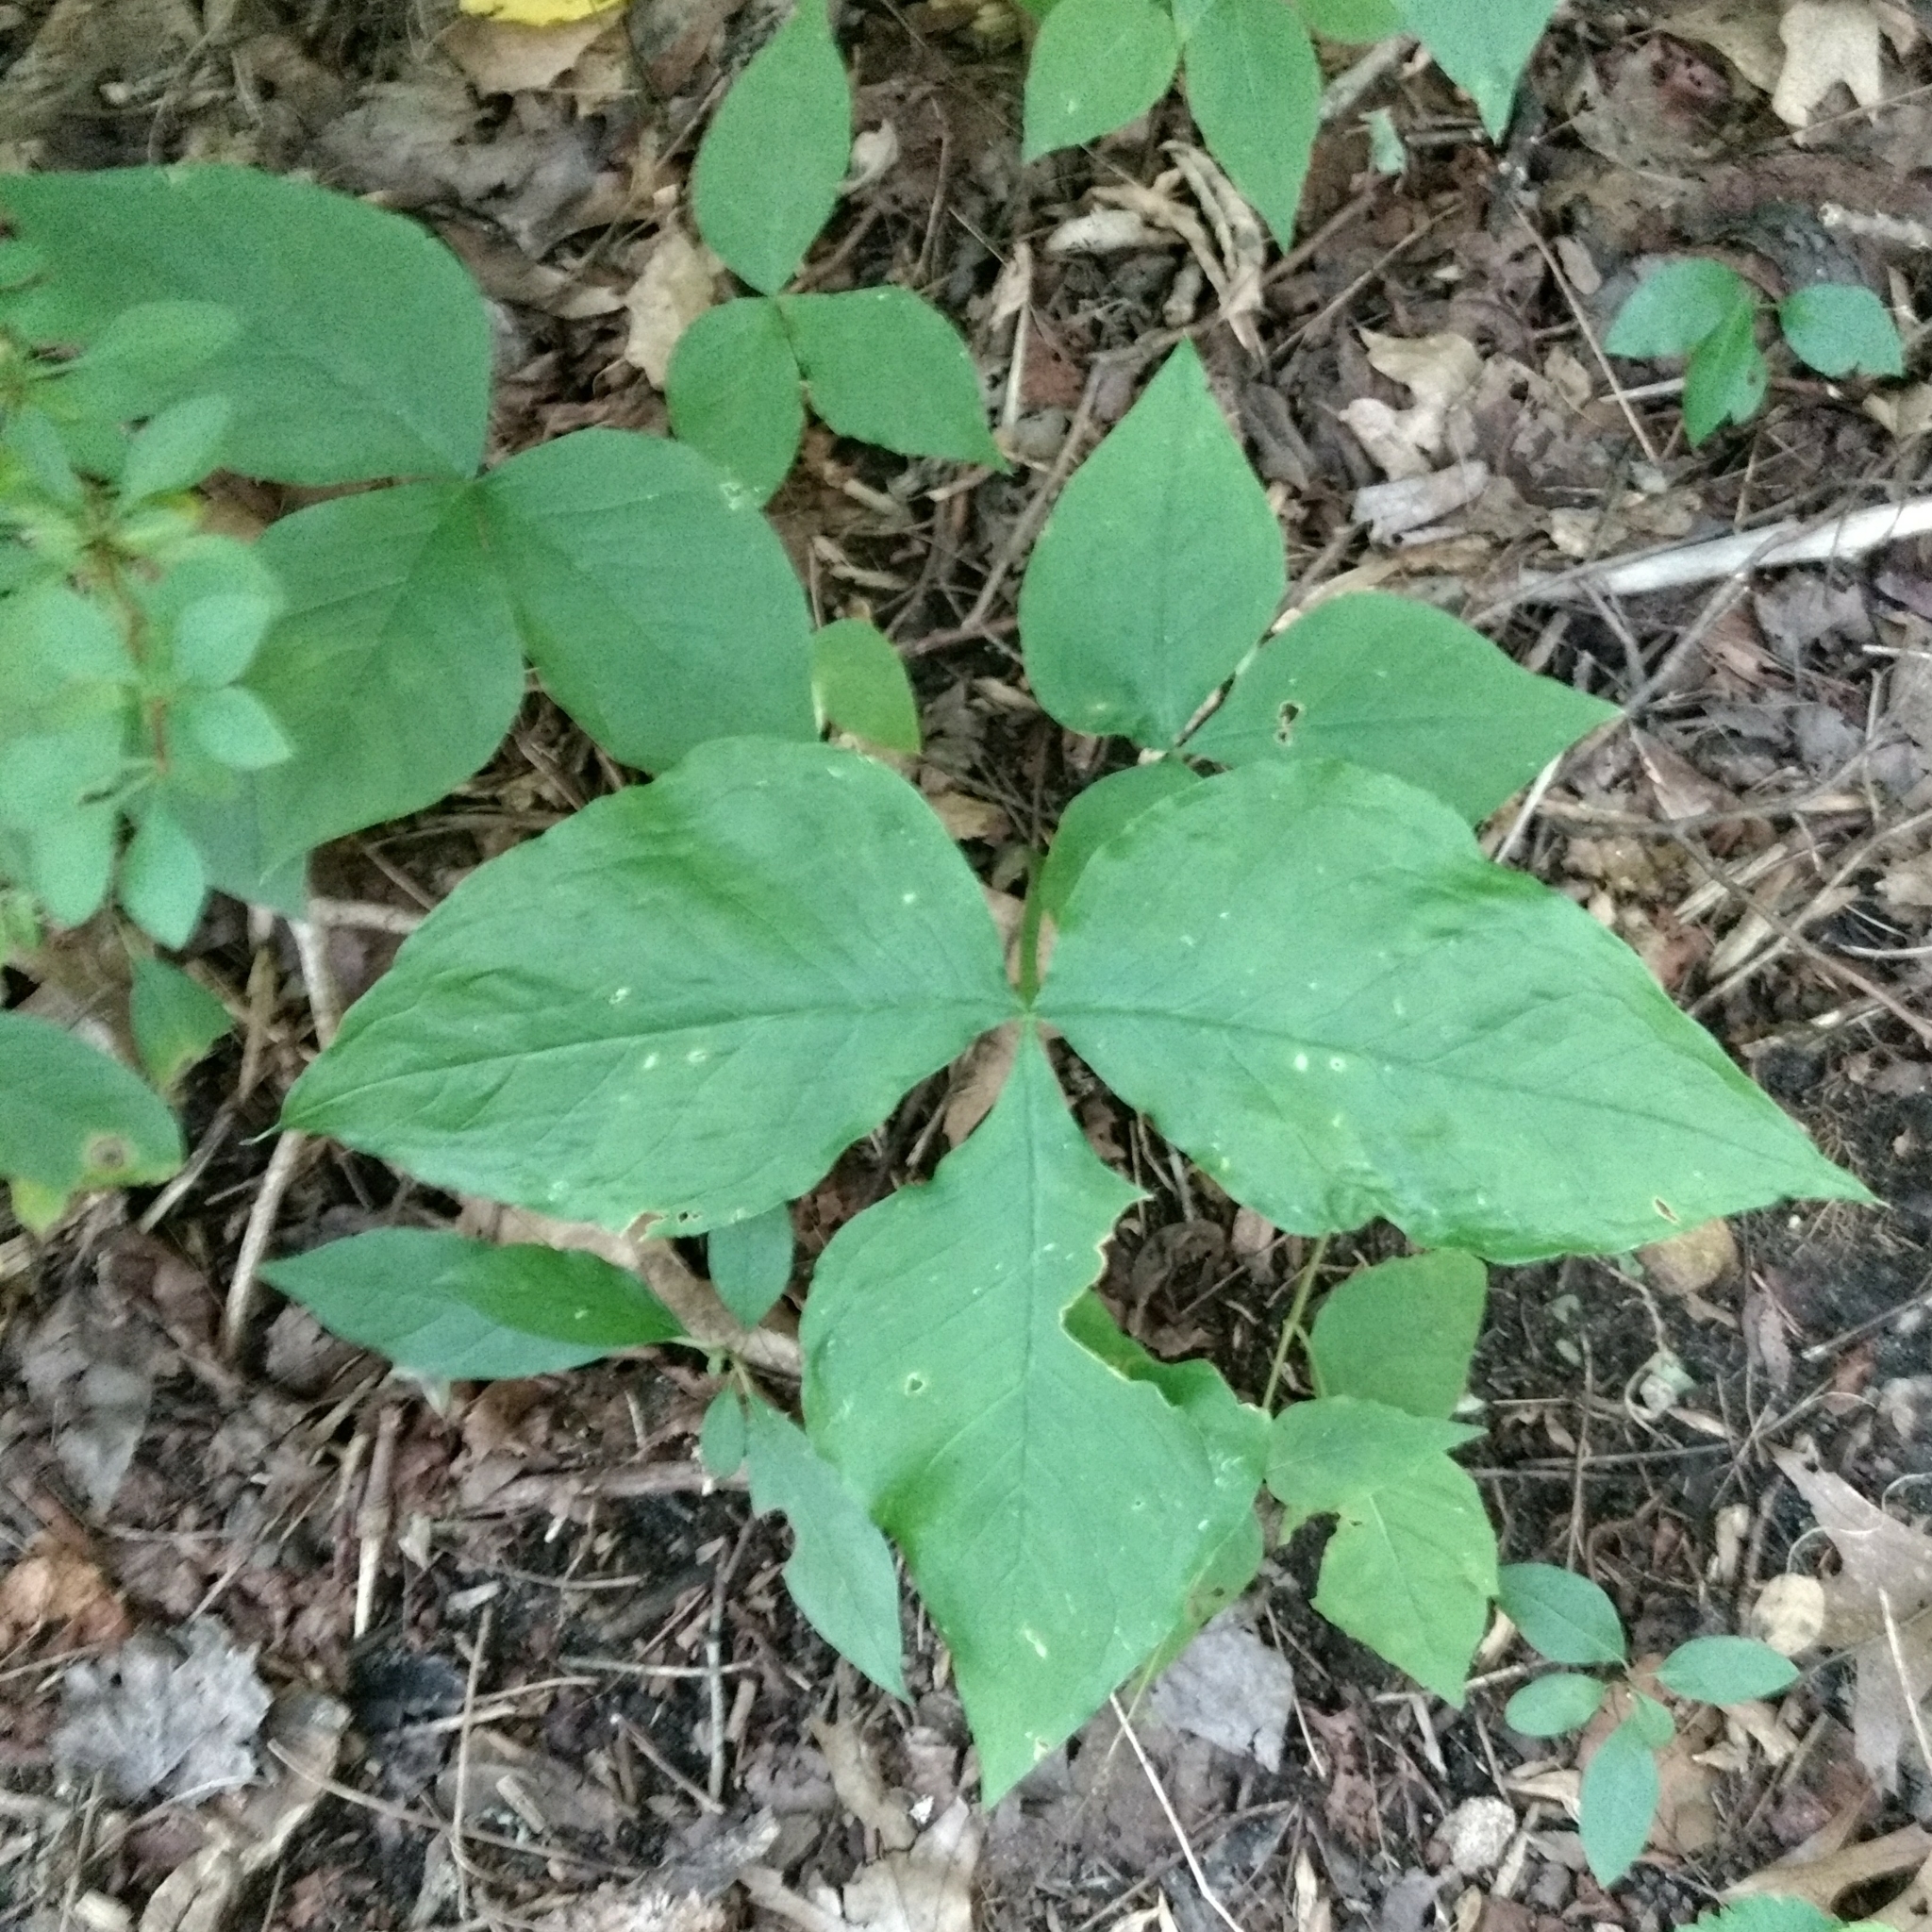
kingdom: Plantae
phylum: Tracheophyta
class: Liliopsida
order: Alismatales
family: Araceae
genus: Arisaema
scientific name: Arisaema triphyllum
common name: Jack-in-the-pulpit
